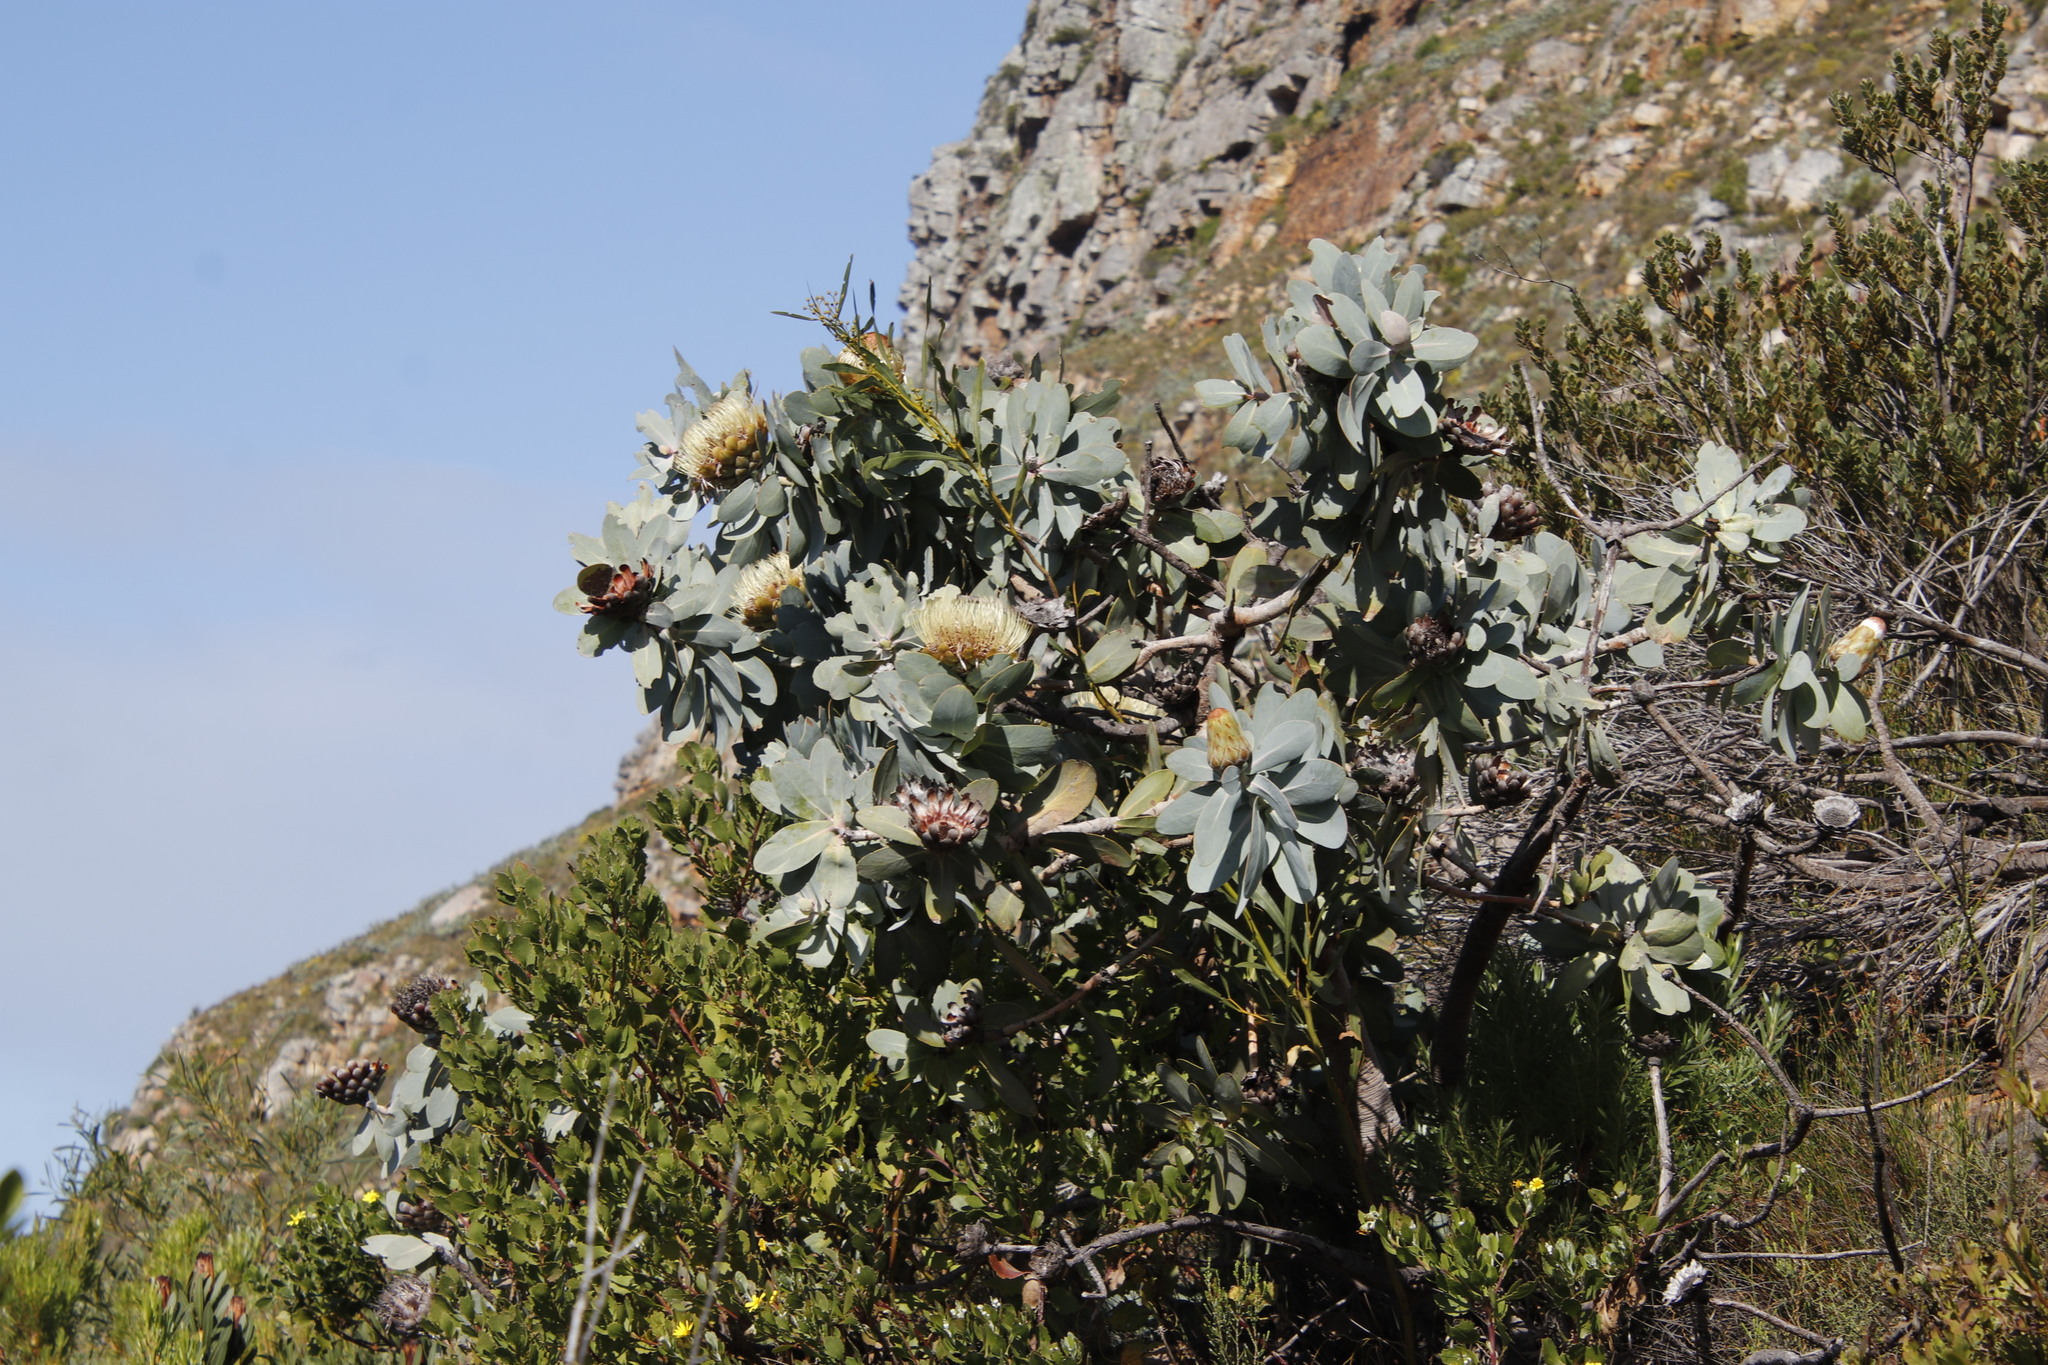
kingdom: Plantae
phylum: Tracheophyta
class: Magnoliopsida
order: Proteales
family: Proteaceae
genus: Protea
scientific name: Protea nitida
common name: Tree protea
